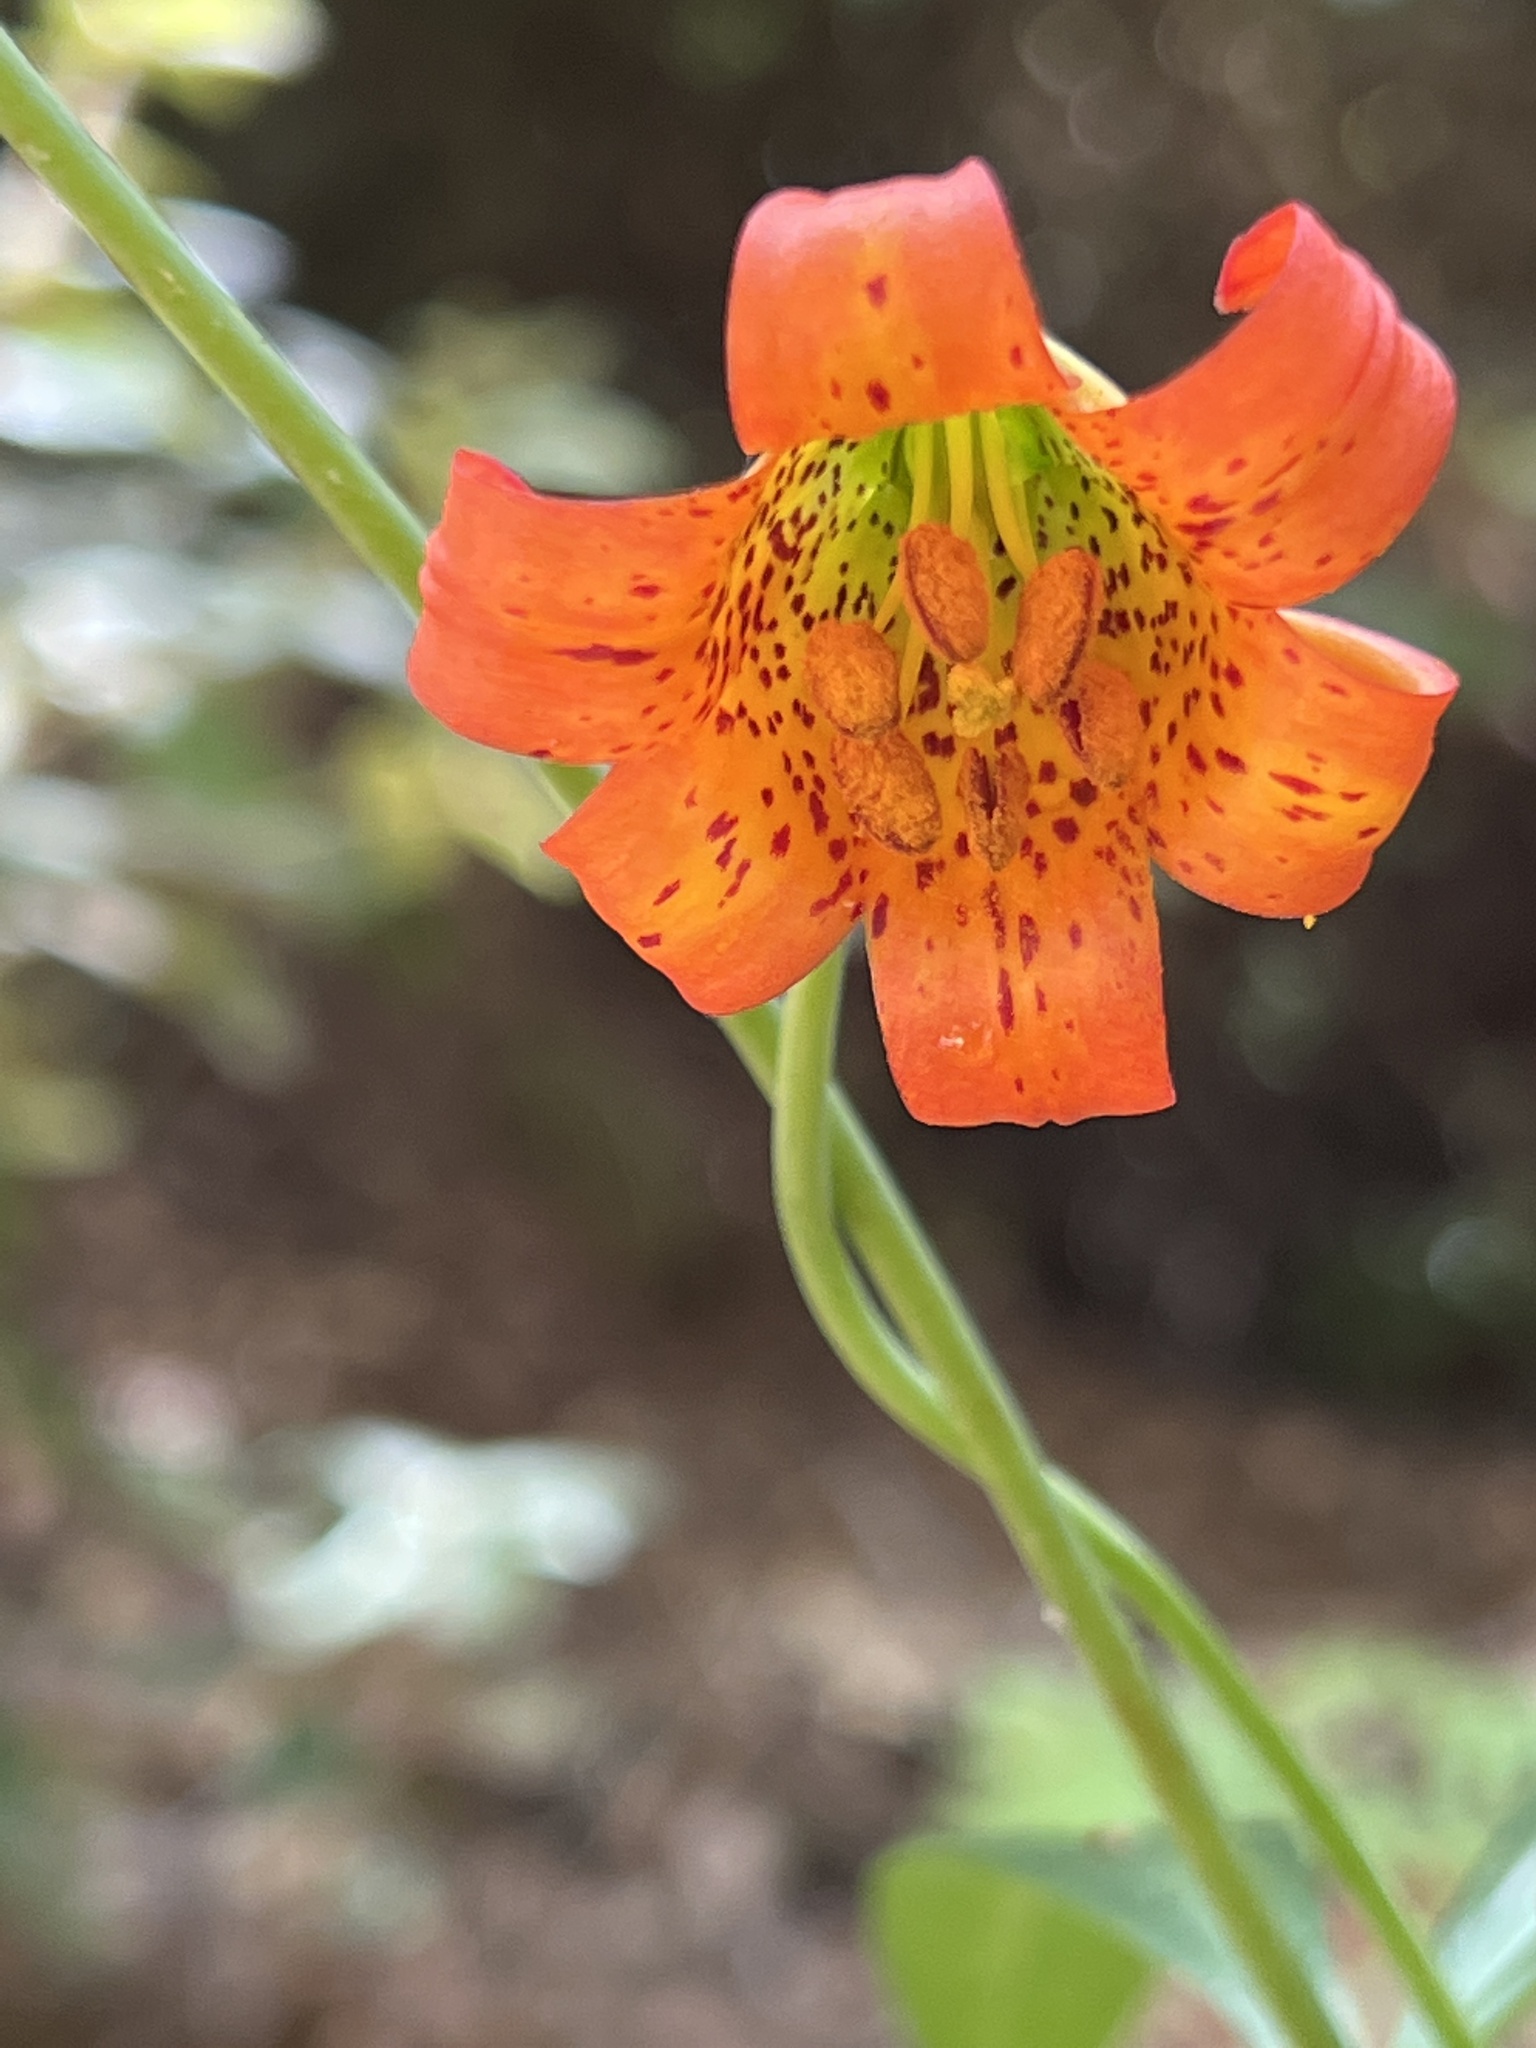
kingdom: Plantae
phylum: Tracheophyta
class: Liliopsida
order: Liliales
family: Liliaceae
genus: Lilium
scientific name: Lilium maritimum
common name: Coastal lily
